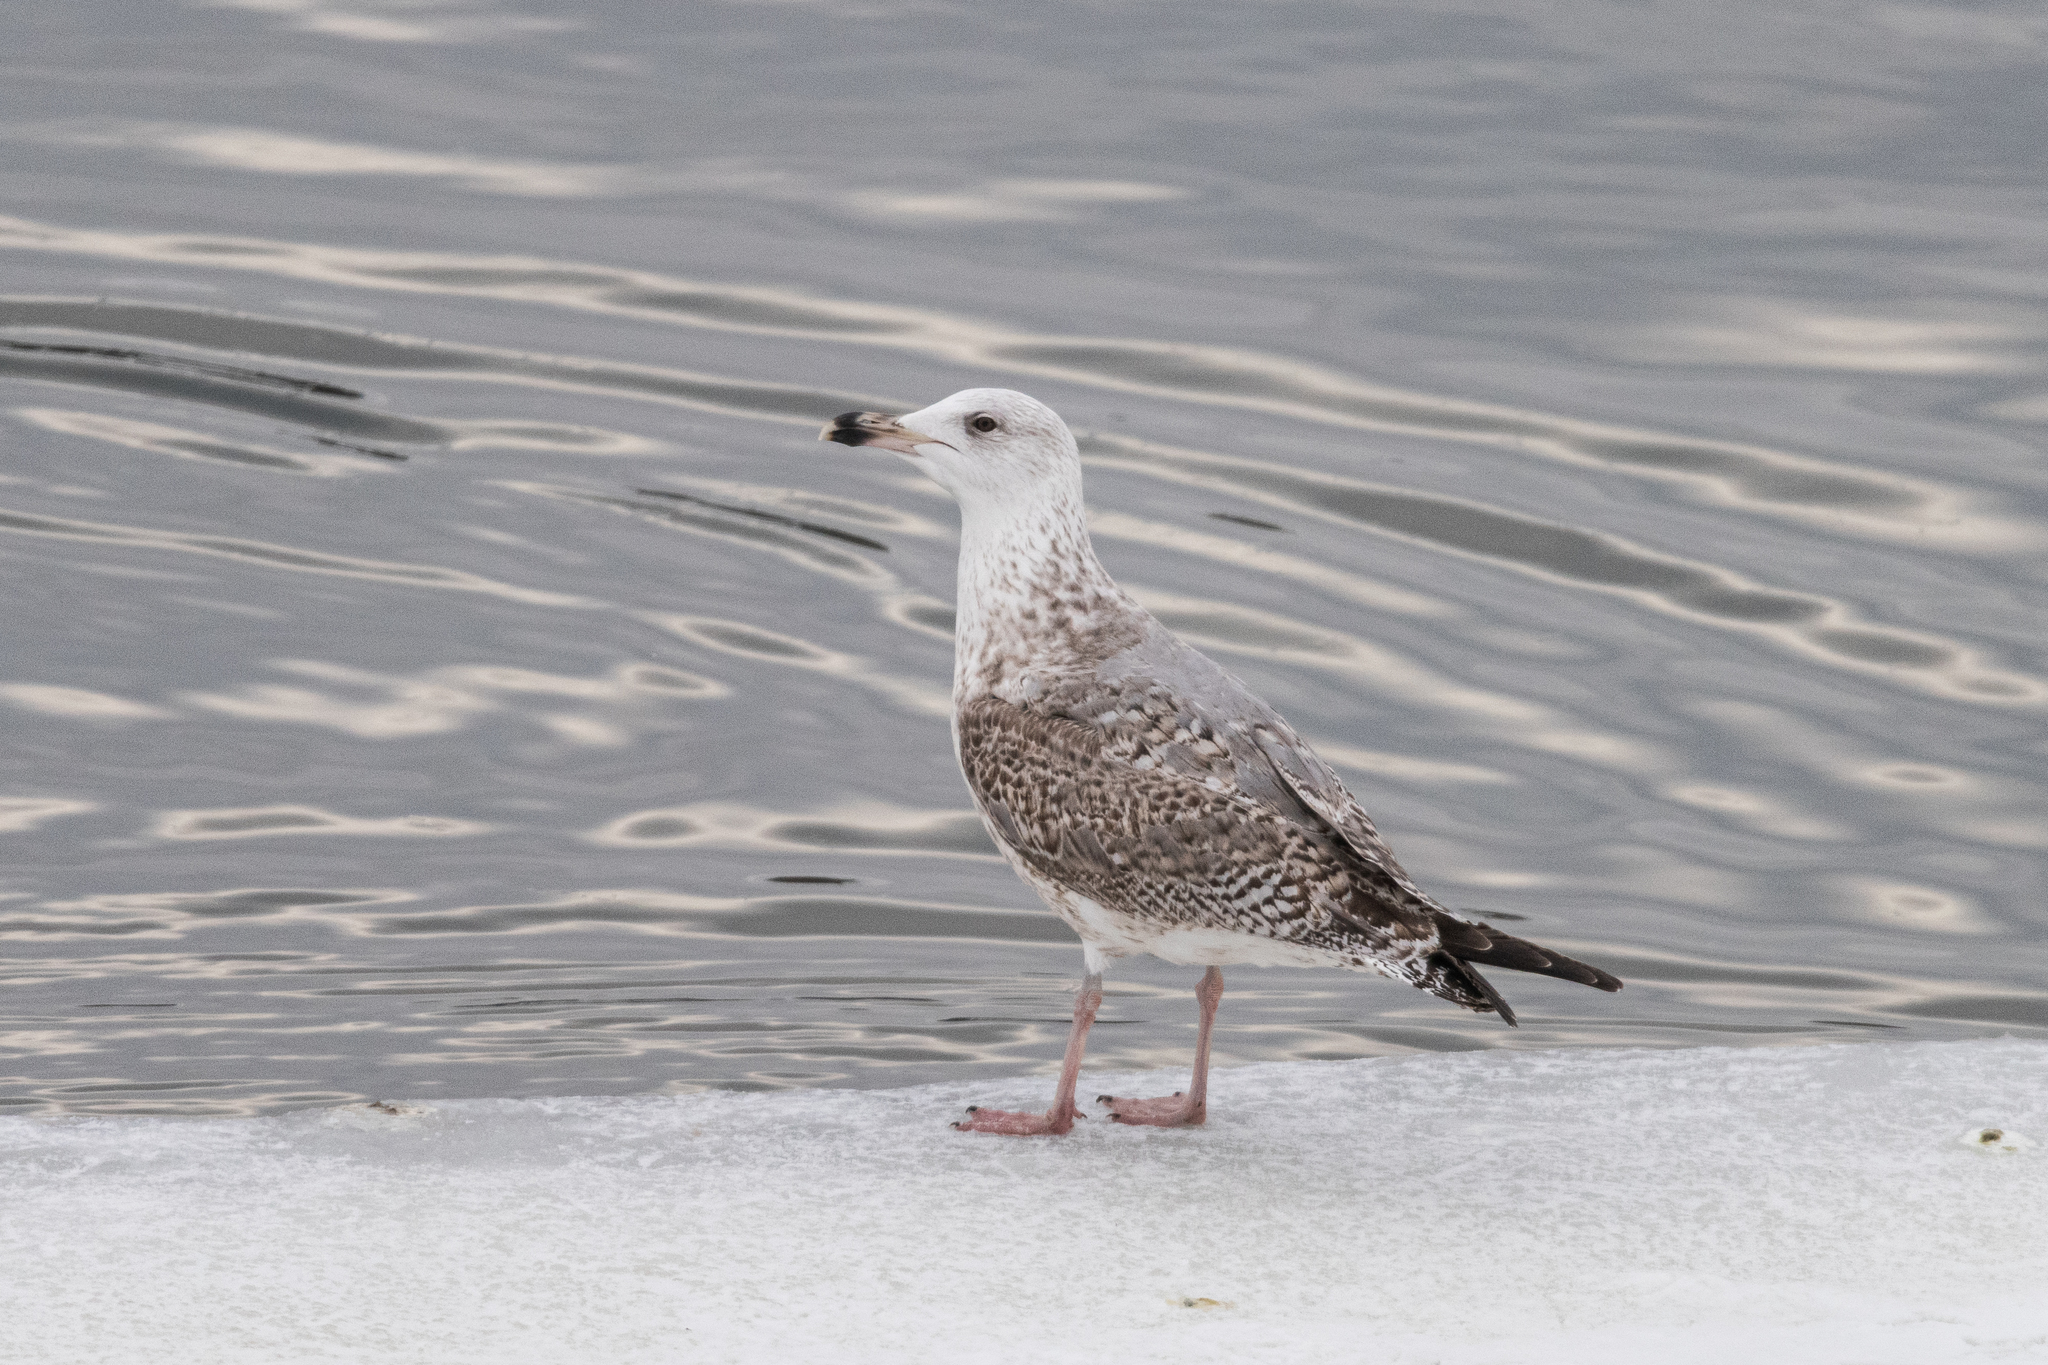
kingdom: Animalia
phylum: Chordata
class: Aves
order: Charadriiformes
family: Laridae
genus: Larus
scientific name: Larus argentatus
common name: Herring gull
